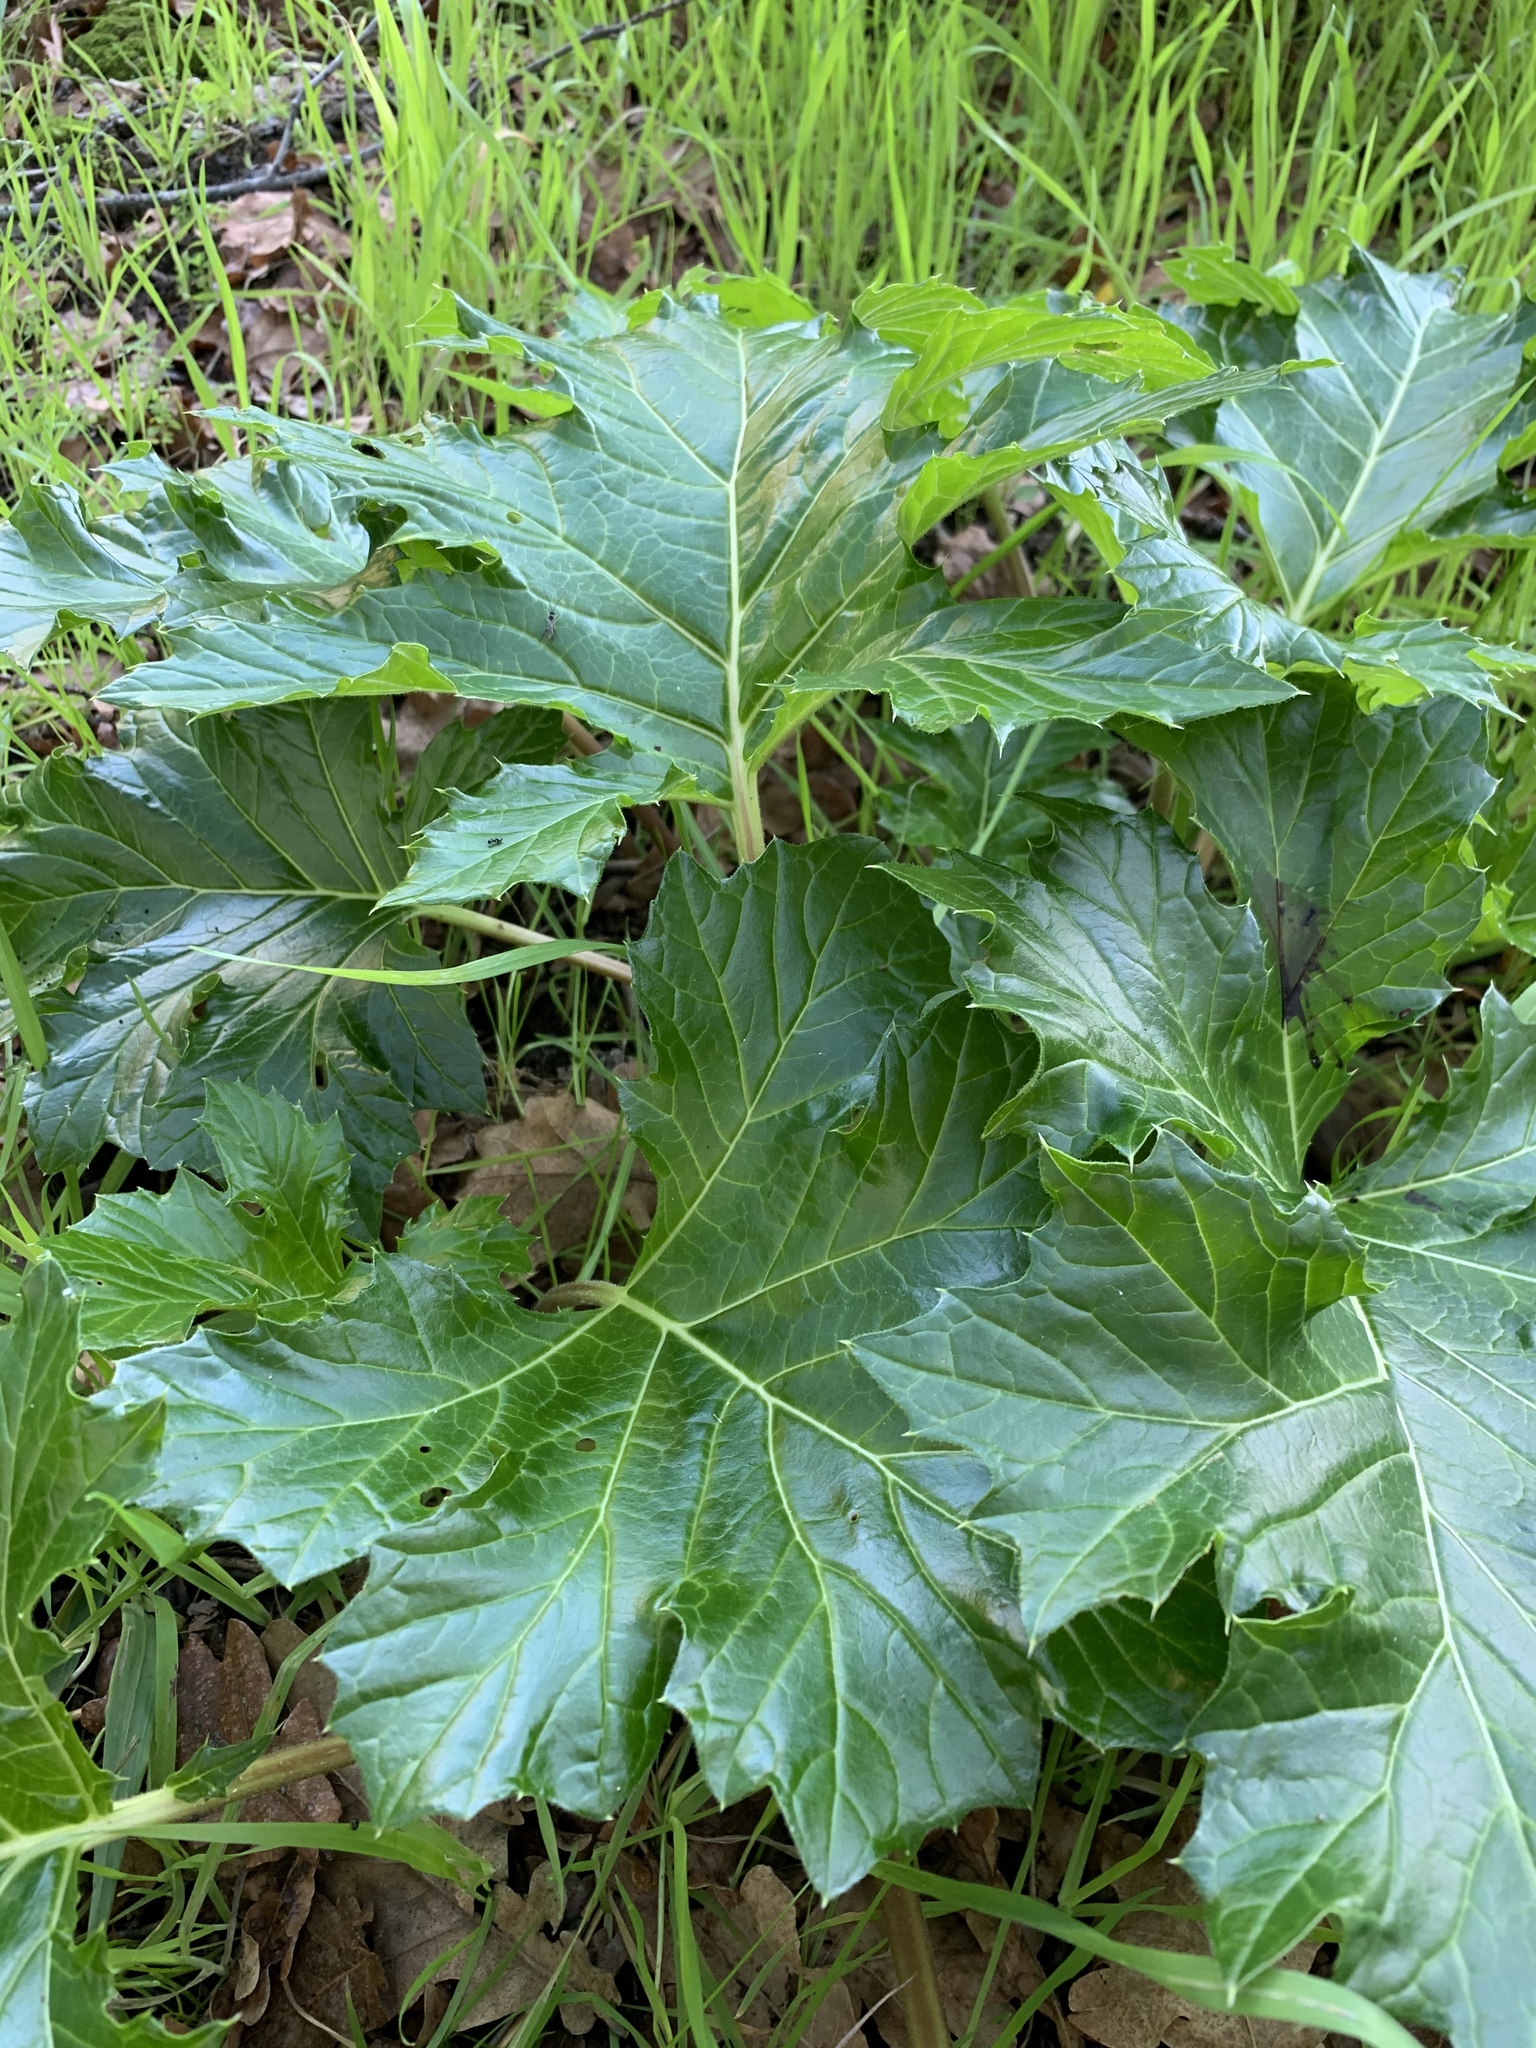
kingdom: Plantae
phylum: Tracheophyta
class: Magnoliopsida
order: Lamiales
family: Acanthaceae
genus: Acanthus
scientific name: Acanthus mollis
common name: Bear's-breech
